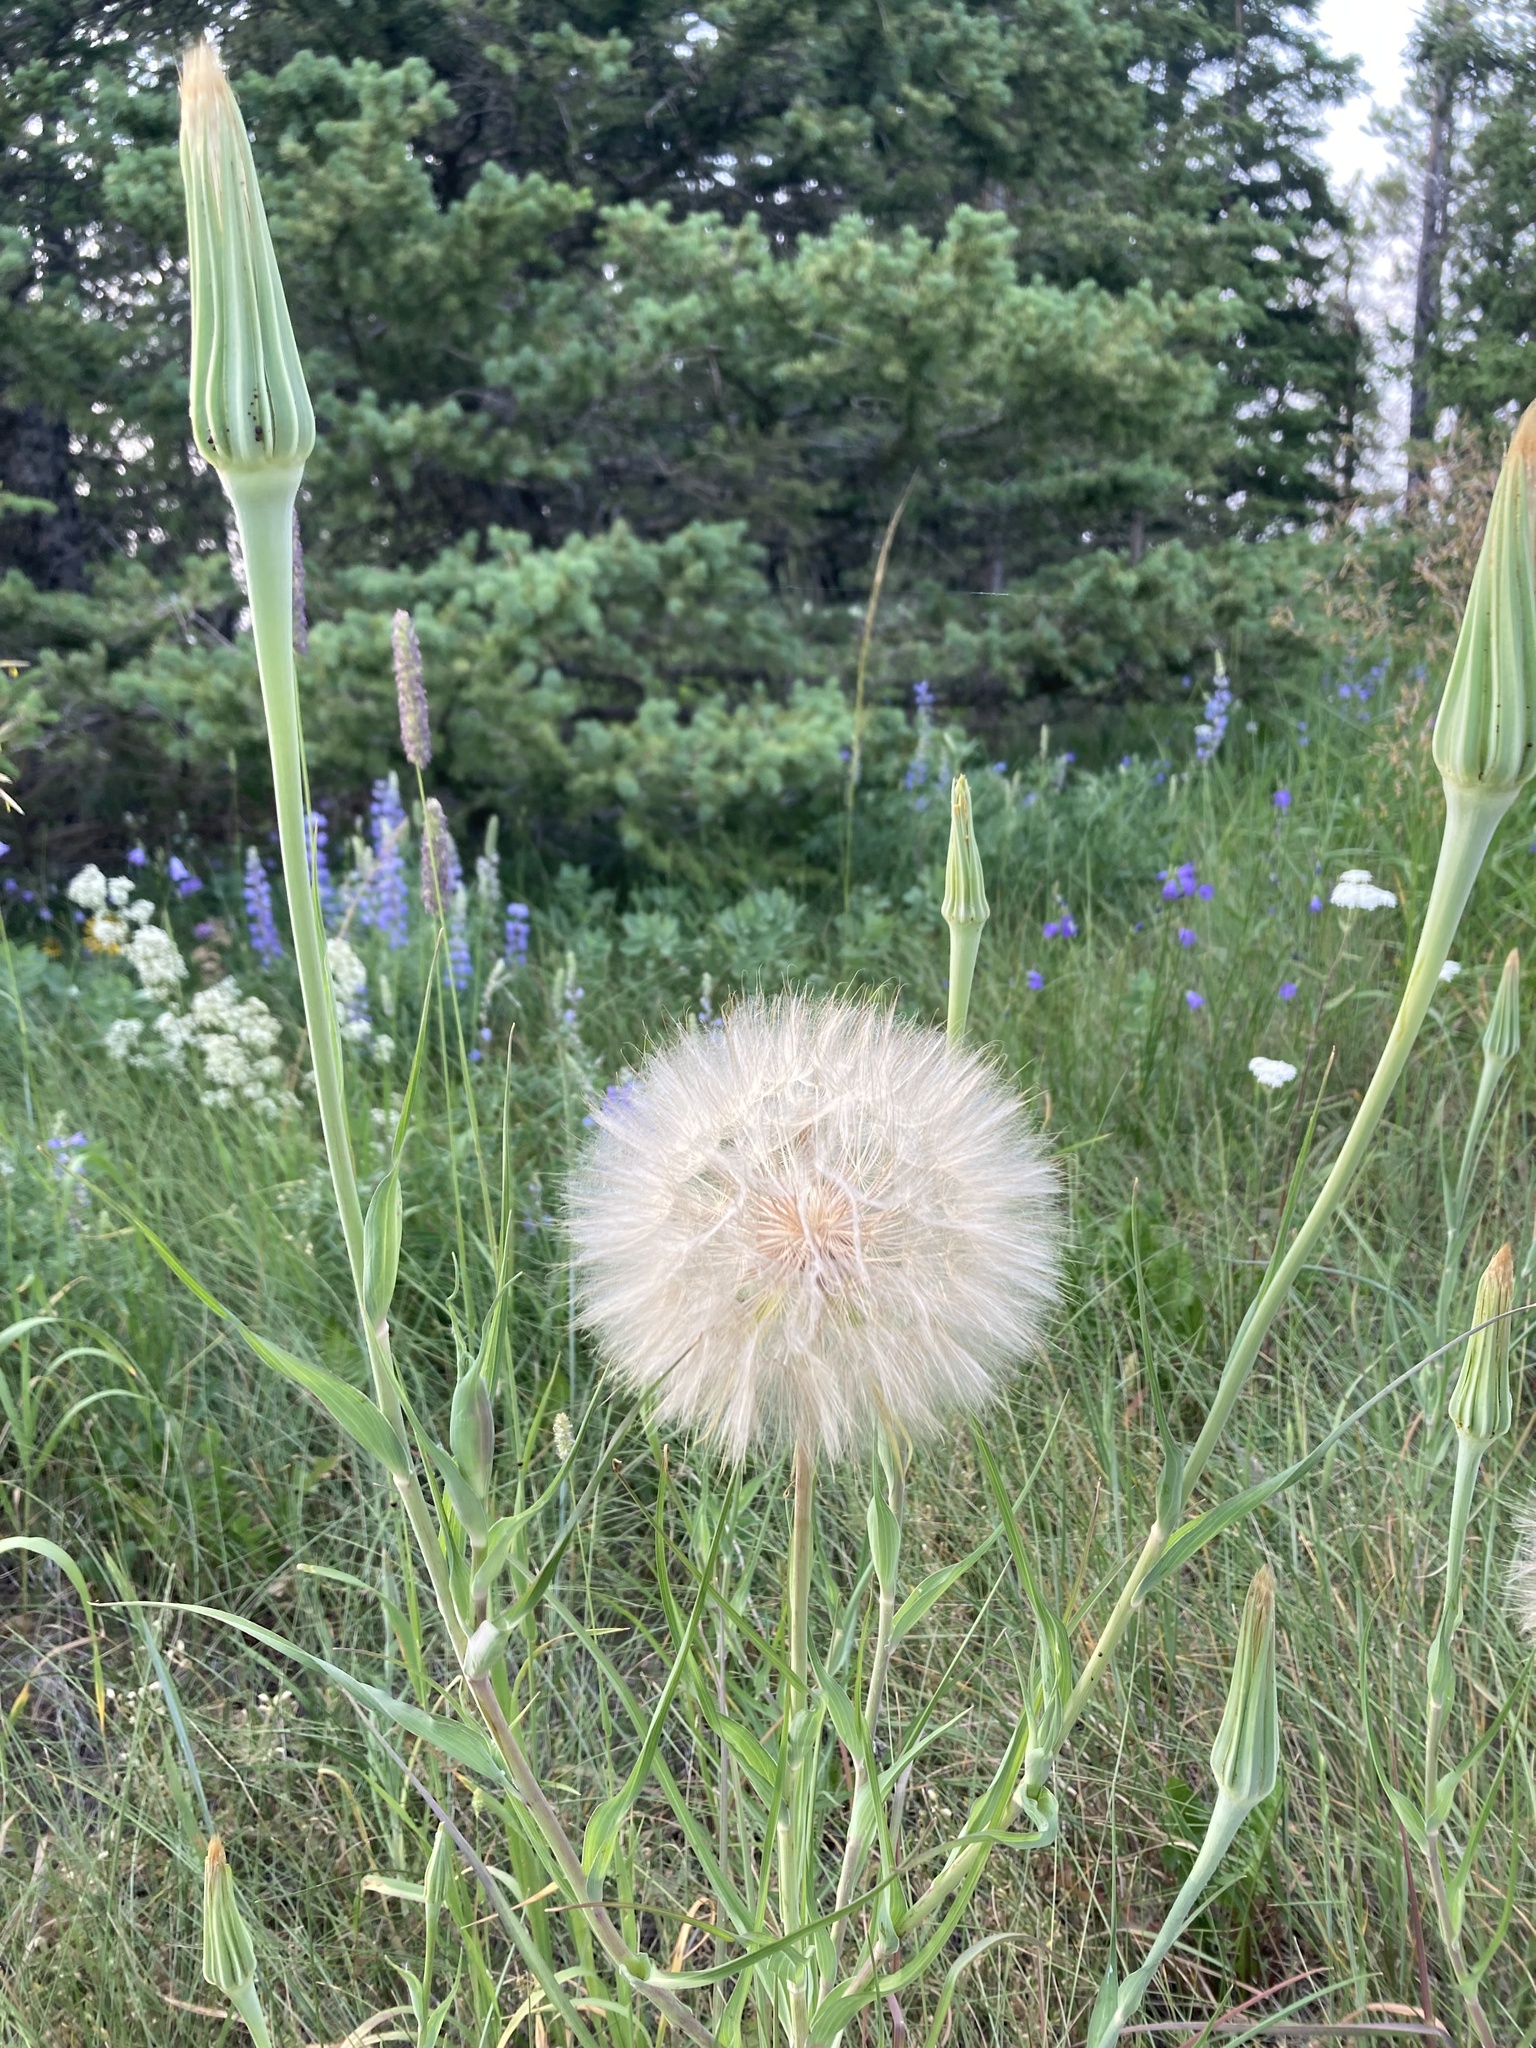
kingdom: Plantae
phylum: Tracheophyta
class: Magnoliopsida
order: Asterales
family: Asteraceae
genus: Tragopogon
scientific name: Tragopogon dubius
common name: Yellow salsify
